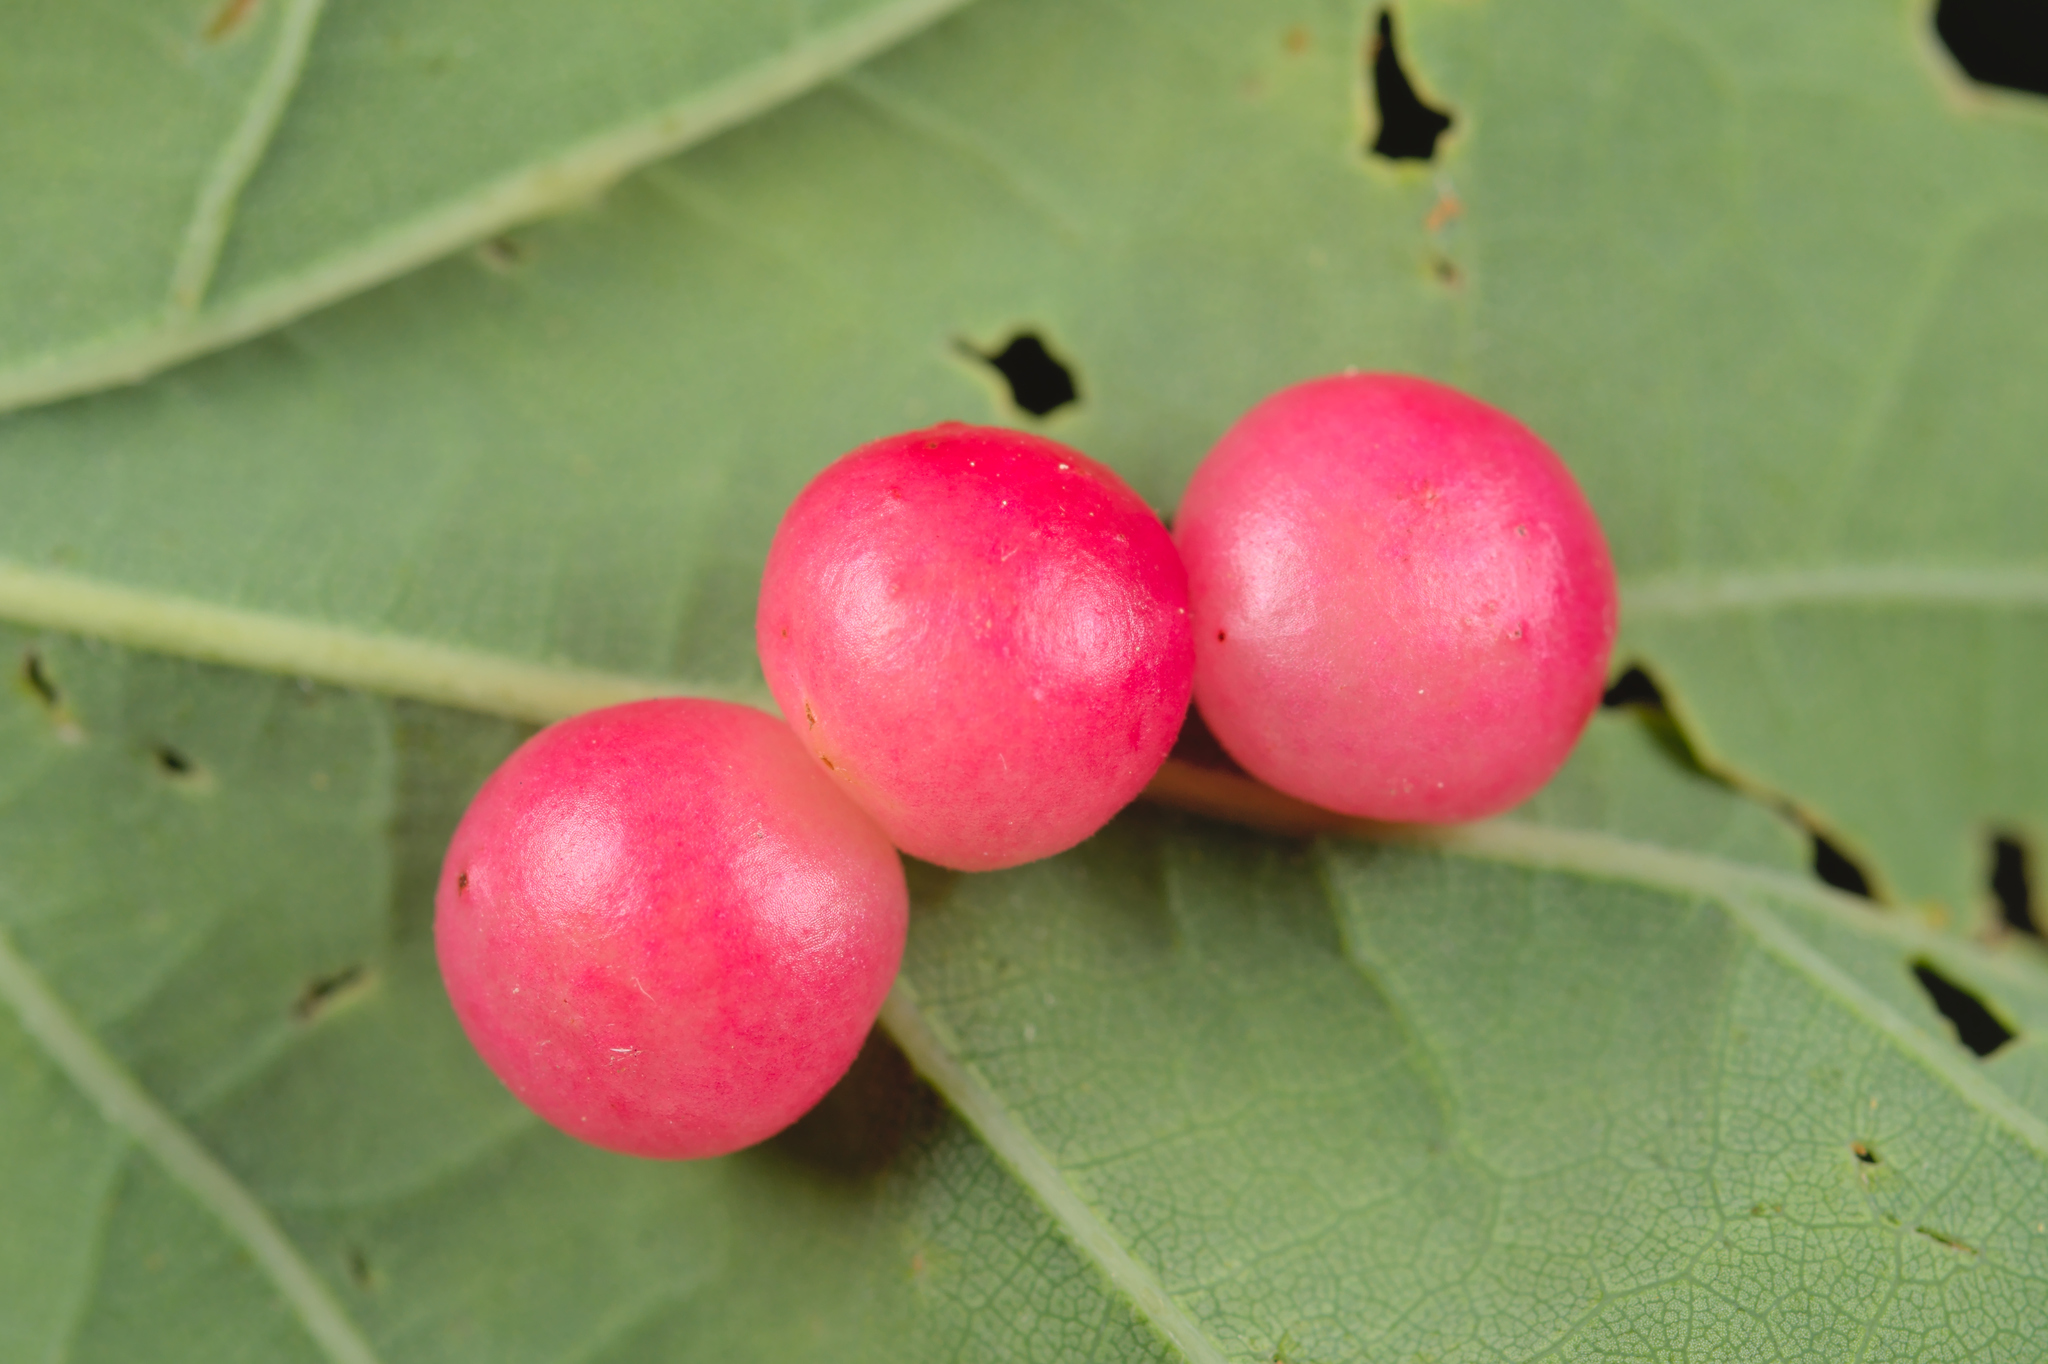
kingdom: Animalia
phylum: Arthropoda
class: Insecta
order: Hymenoptera
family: Cynipidae
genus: Cynips
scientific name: Cynips divisa
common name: Red currant gall
